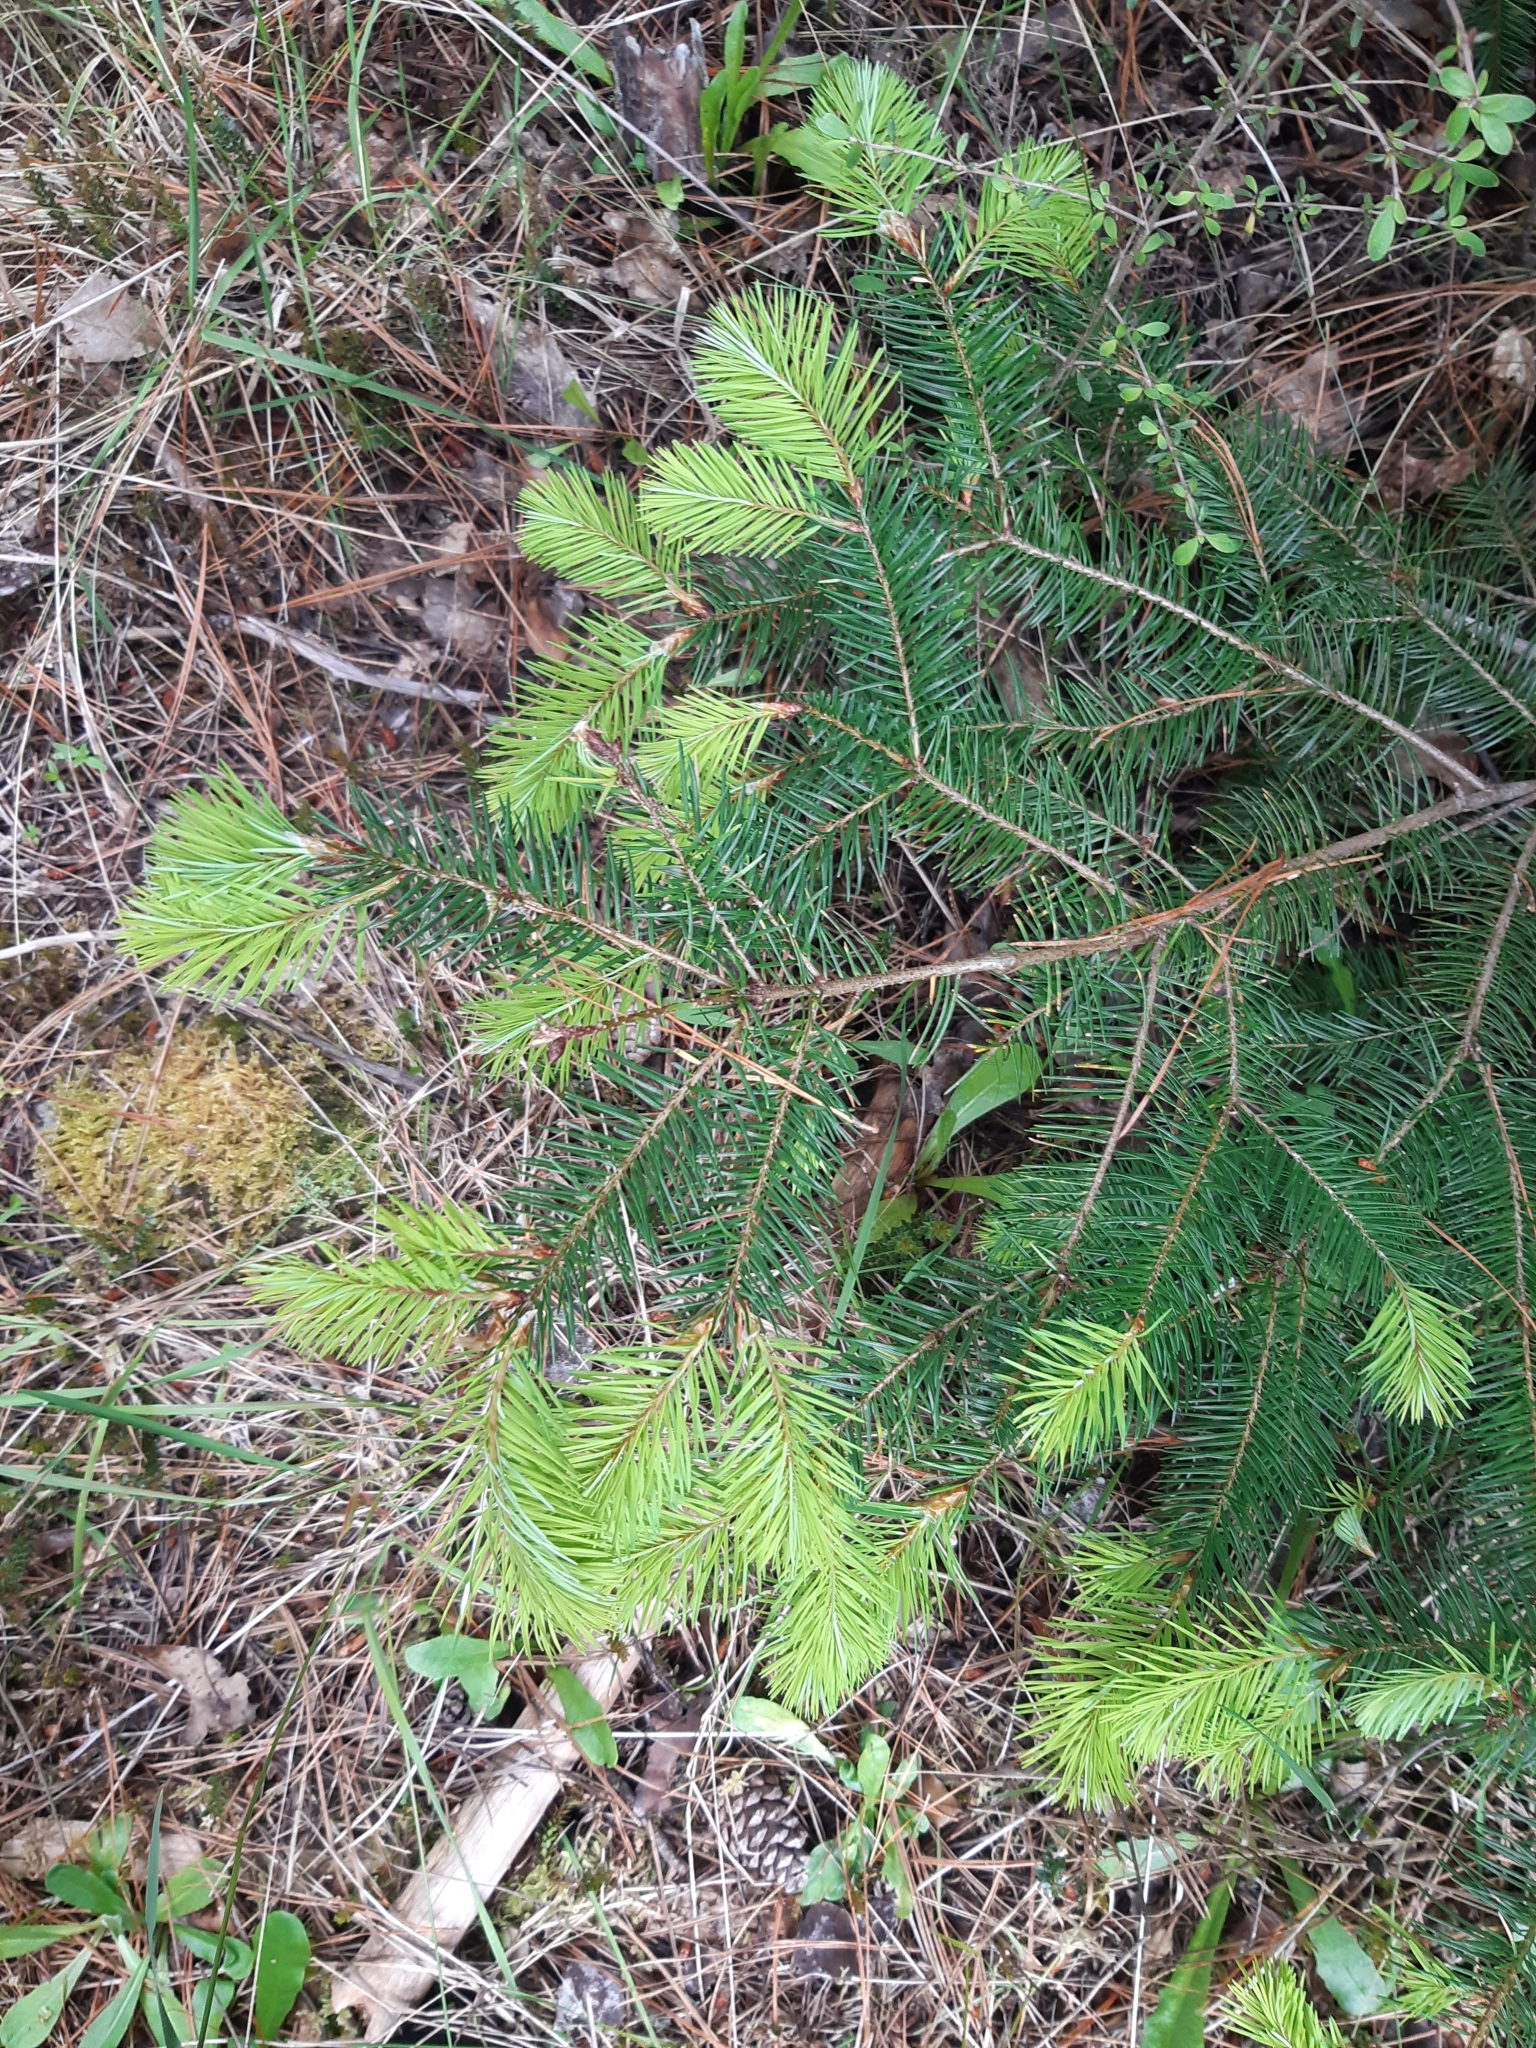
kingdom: Plantae
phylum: Tracheophyta
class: Pinopsida
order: Pinales
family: Pinaceae
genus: Pseudotsuga
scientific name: Pseudotsuga menziesii
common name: Douglas fir
